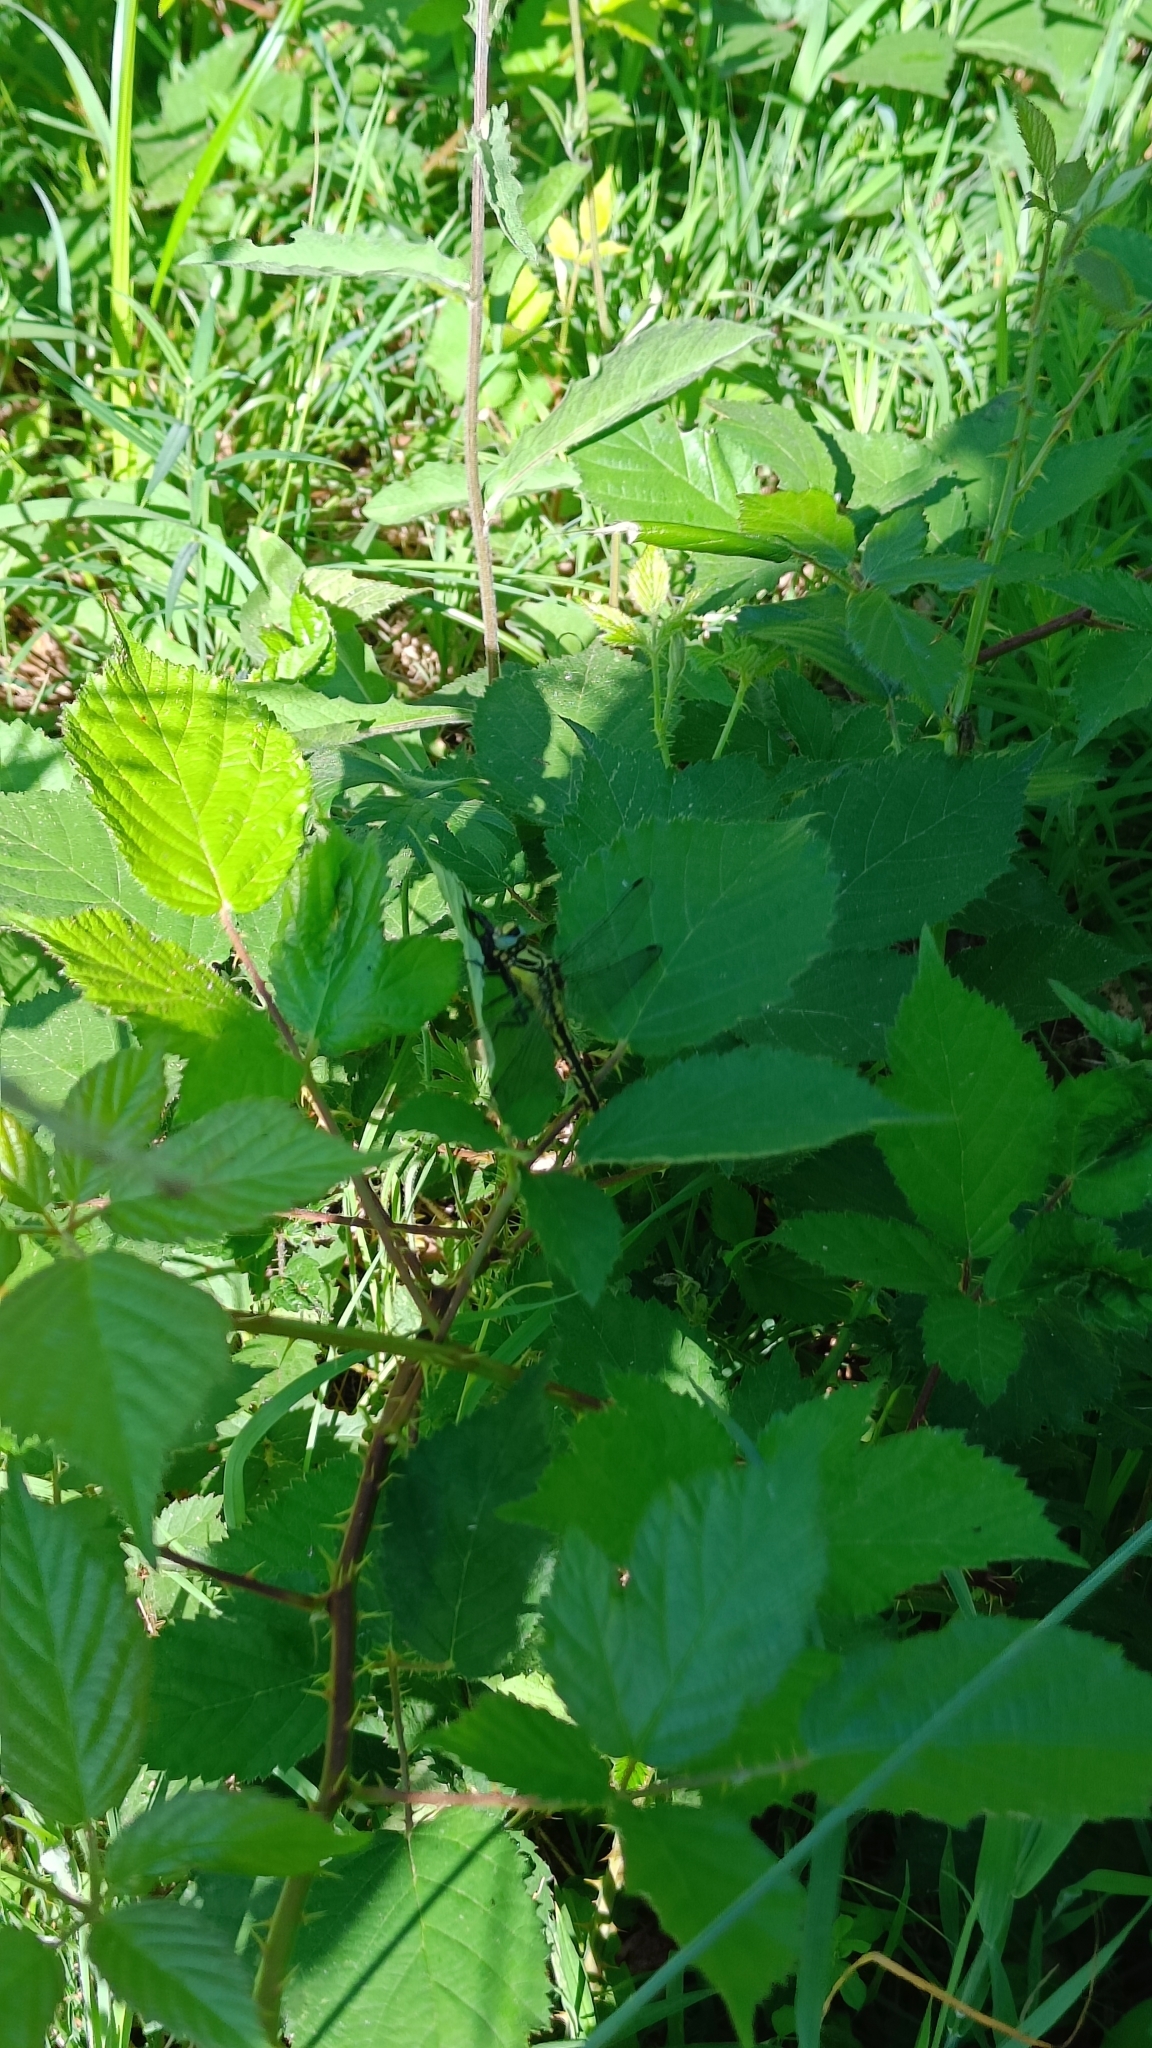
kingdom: Animalia
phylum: Arthropoda
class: Insecta
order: Odonata
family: Gomphidae
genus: Gomphus
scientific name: Gomphus simillimus
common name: Yellow clubtail
